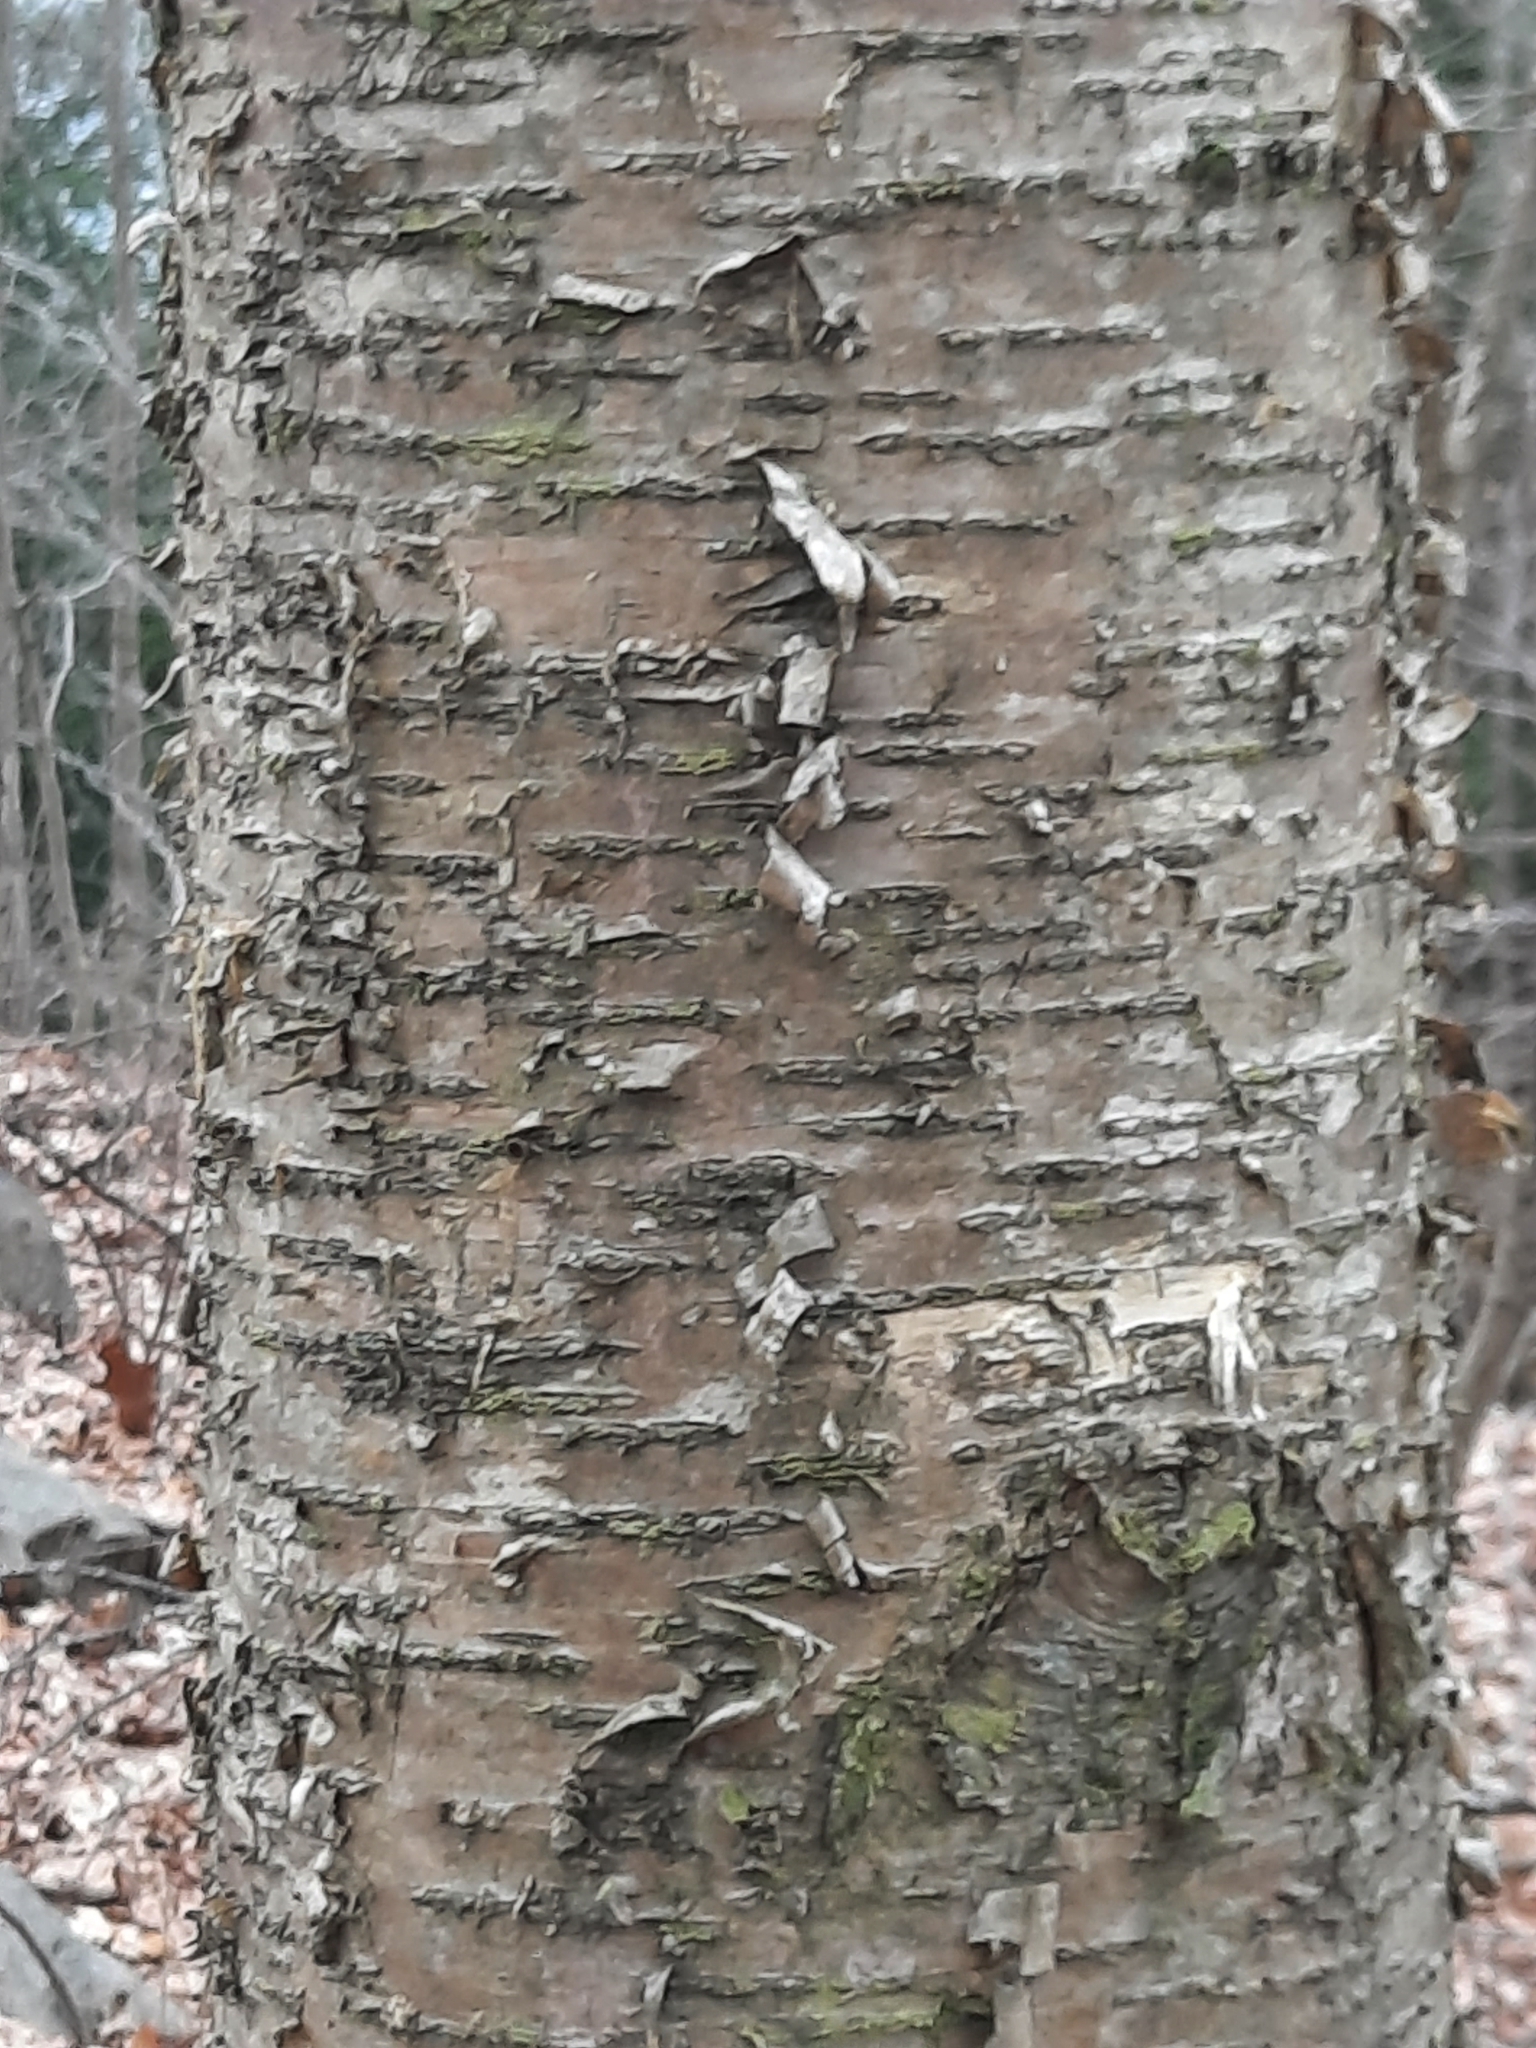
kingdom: Plantae
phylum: Tracheophyta
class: Magnoliopsida
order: Fagales
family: Betulaceae
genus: Betula
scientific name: Betula alleghaniensis
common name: Yellow birch
